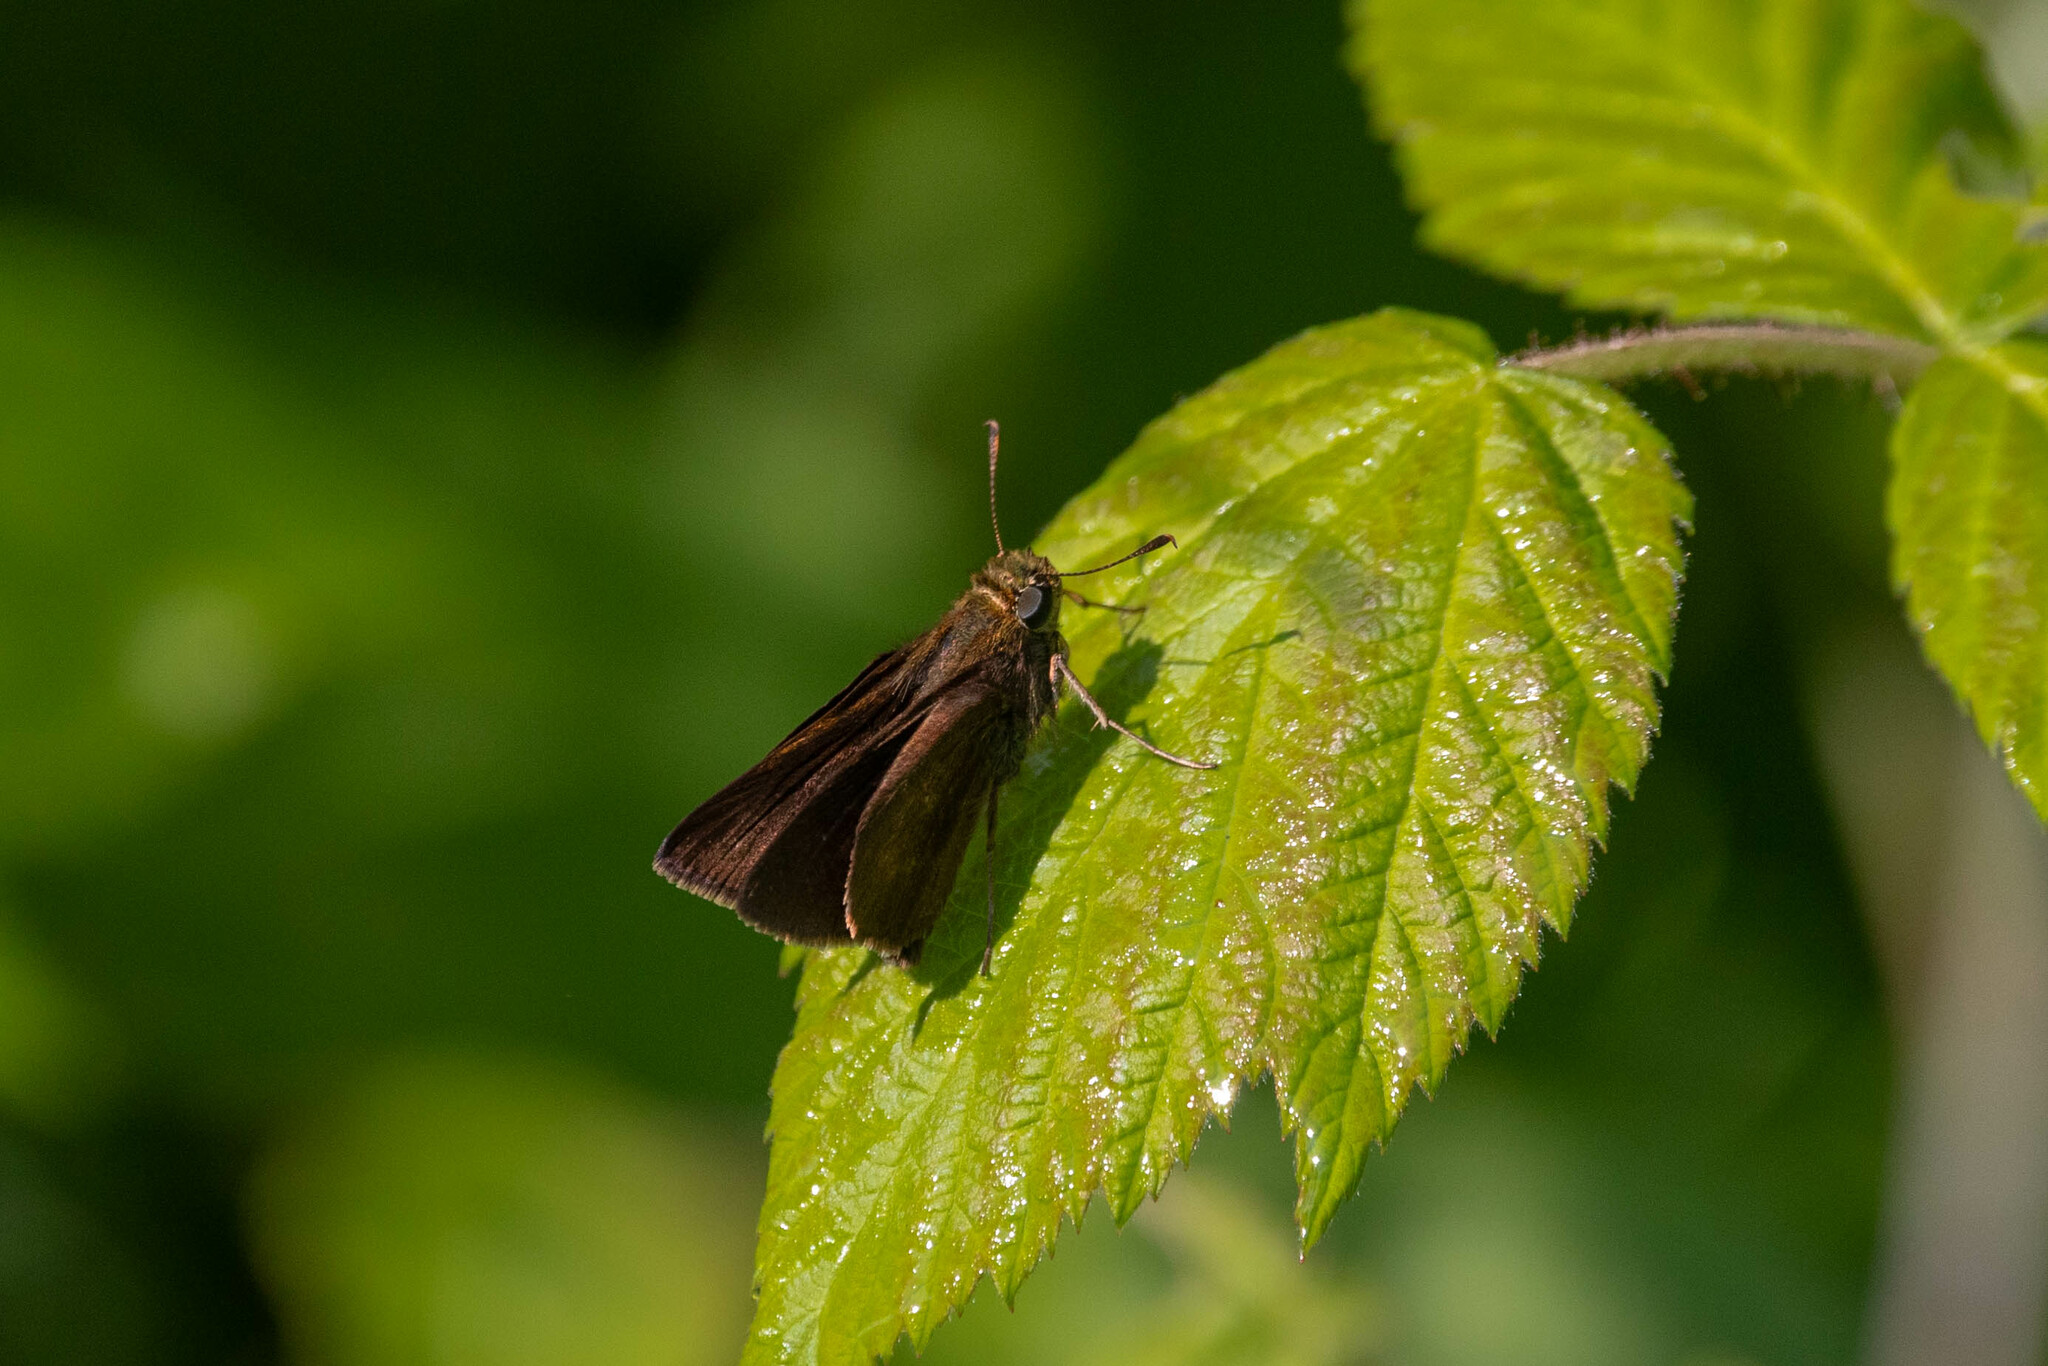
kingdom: Animalia
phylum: Arthropoda
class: Insecta
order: Lepidoptera
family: Hesperiidae
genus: Euphyes
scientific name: Euphyes vestris
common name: Dun skipper
